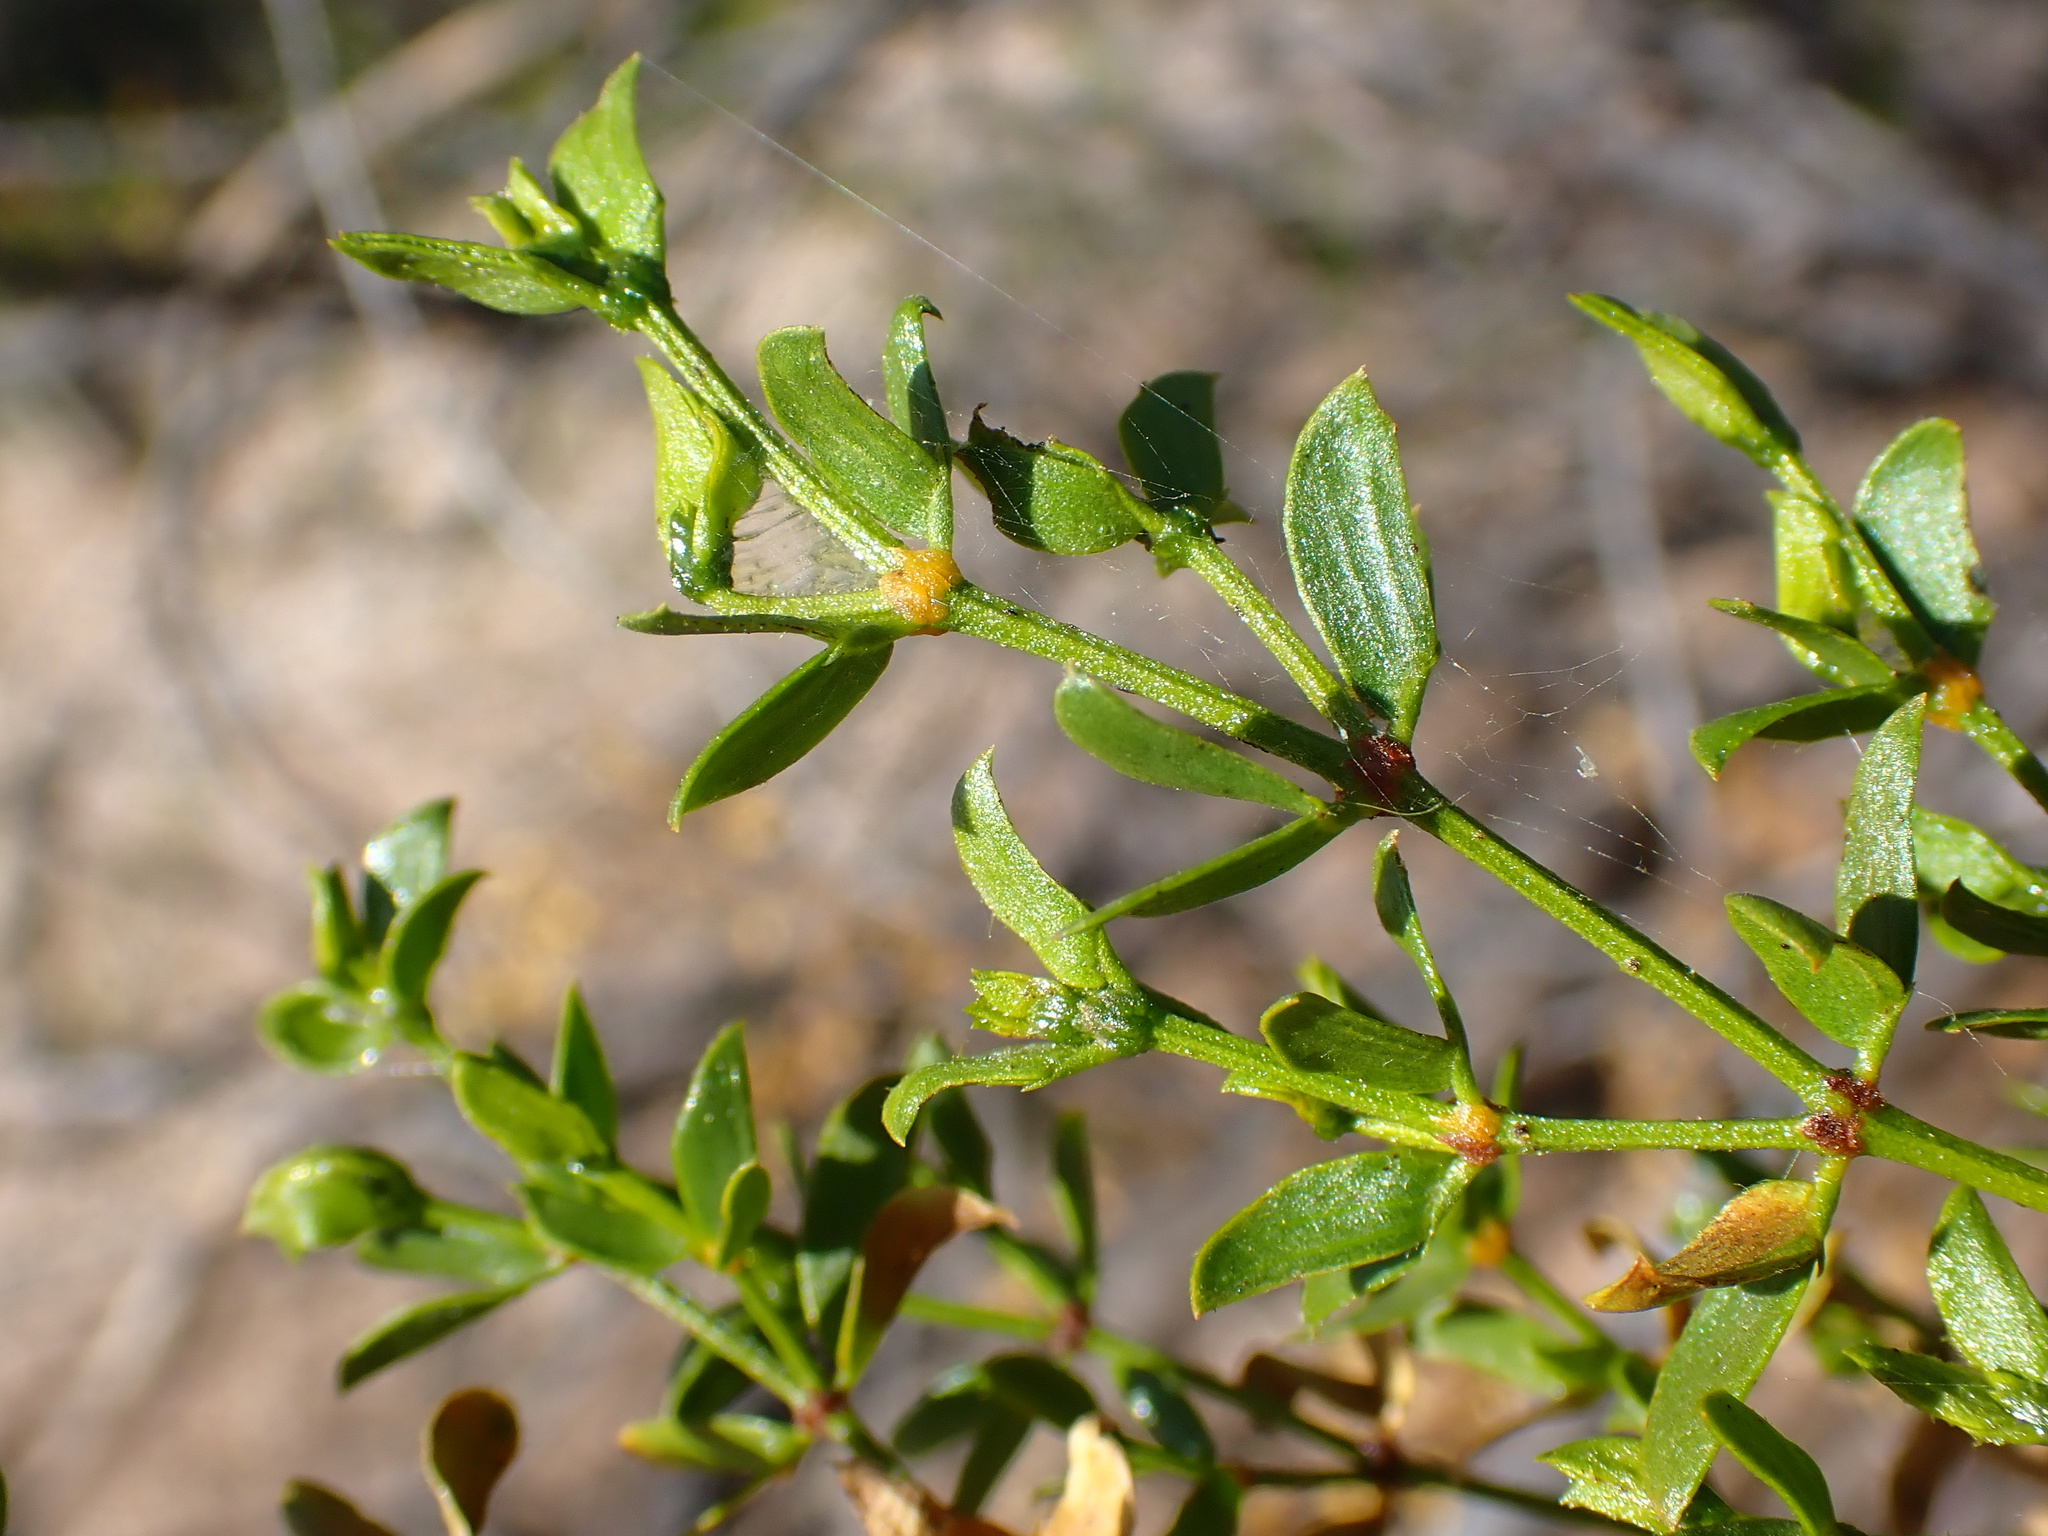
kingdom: Animalia
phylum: Arthropoda
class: Insecta
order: Diptera
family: Cecidomyiidae
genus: Asphondylia
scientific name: Asphondylia auripila
